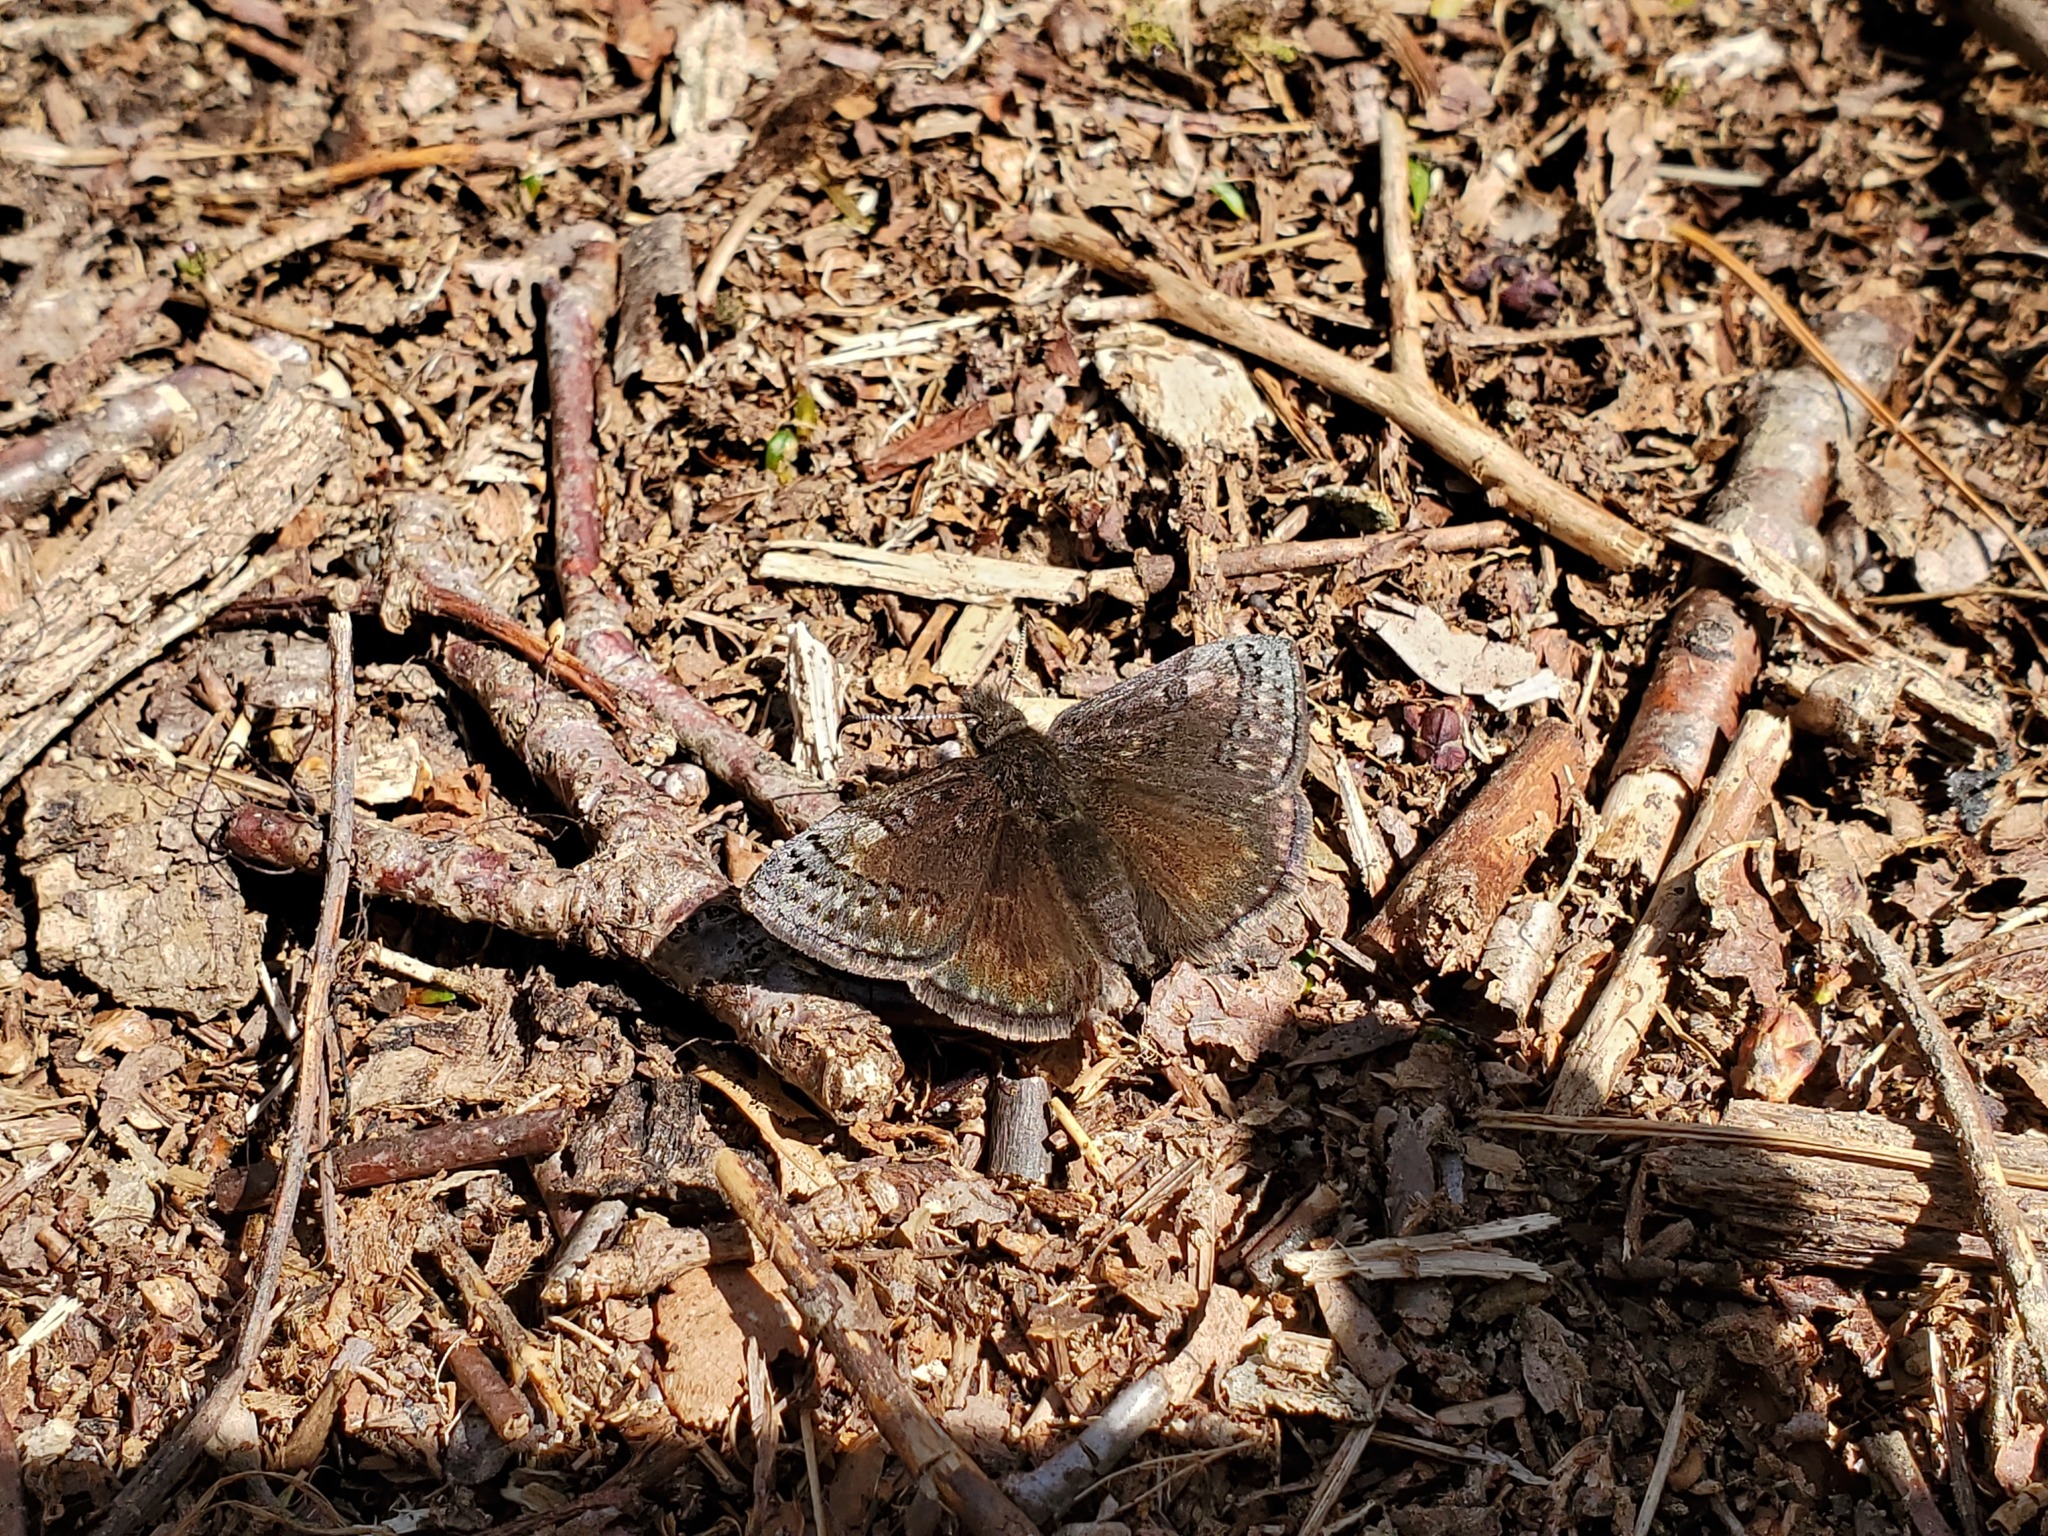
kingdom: Animalia
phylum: Arthropoda
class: Insecta
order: Lepidoptera
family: Hesperiidae
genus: Erynnis
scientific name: Erynnis icelus
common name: Dreamy duskywing
